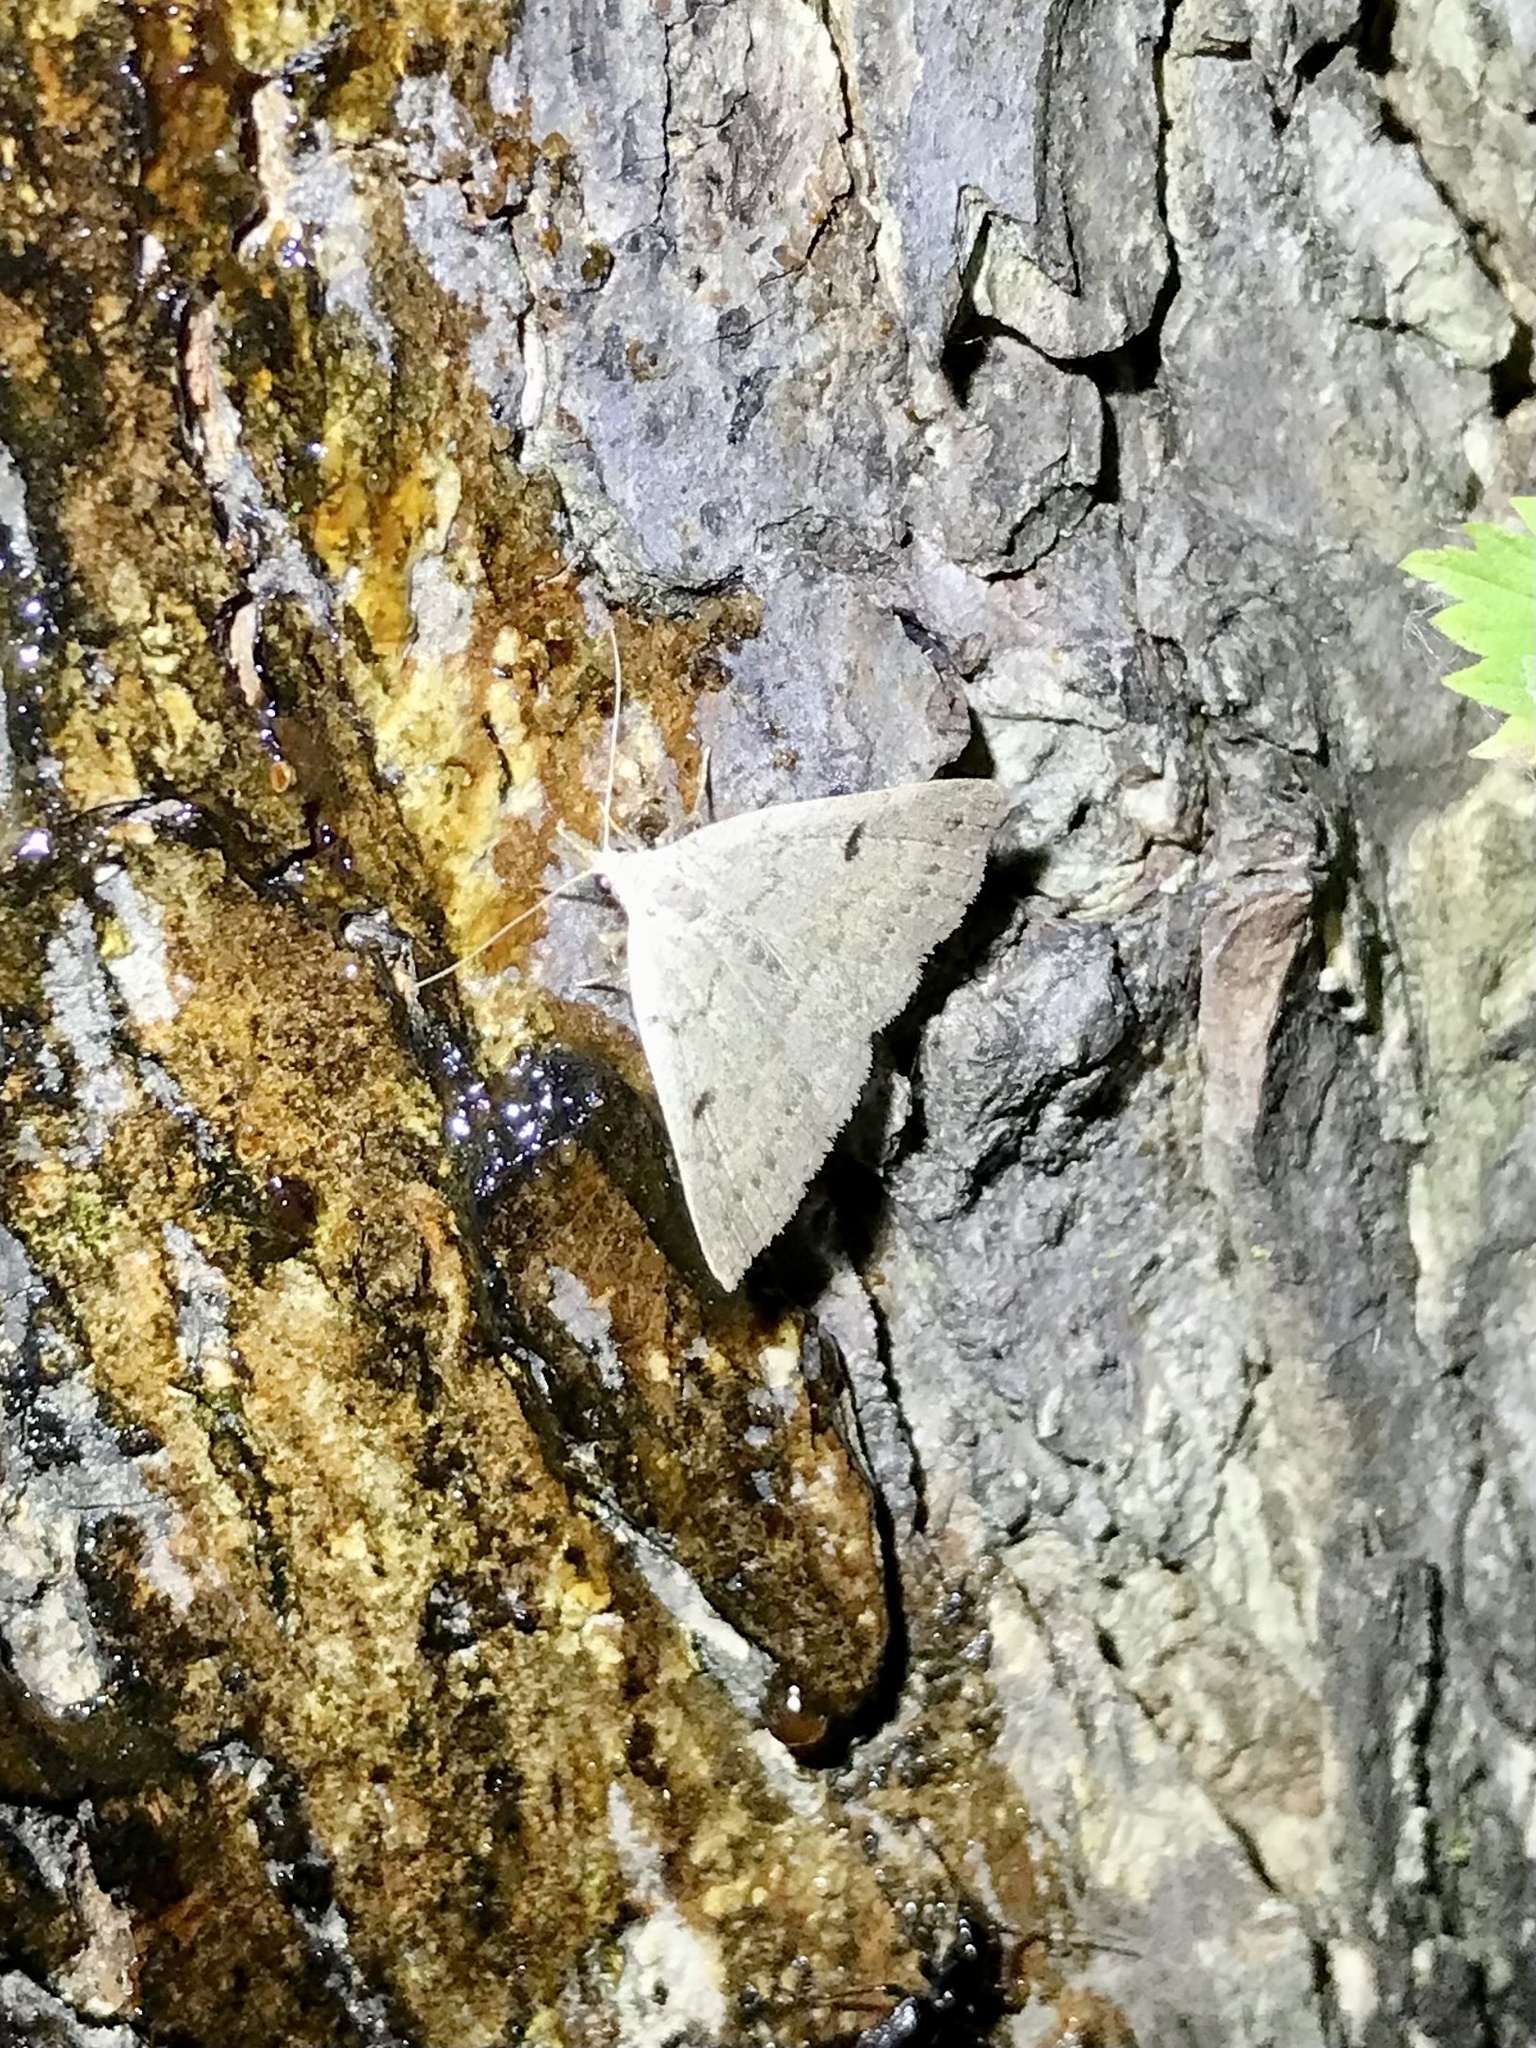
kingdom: Animalia
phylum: Arthropoda
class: Insecta
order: Lepidoptera
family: Erebidae
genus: Macrochilo
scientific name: Macrochilo morbidalis
